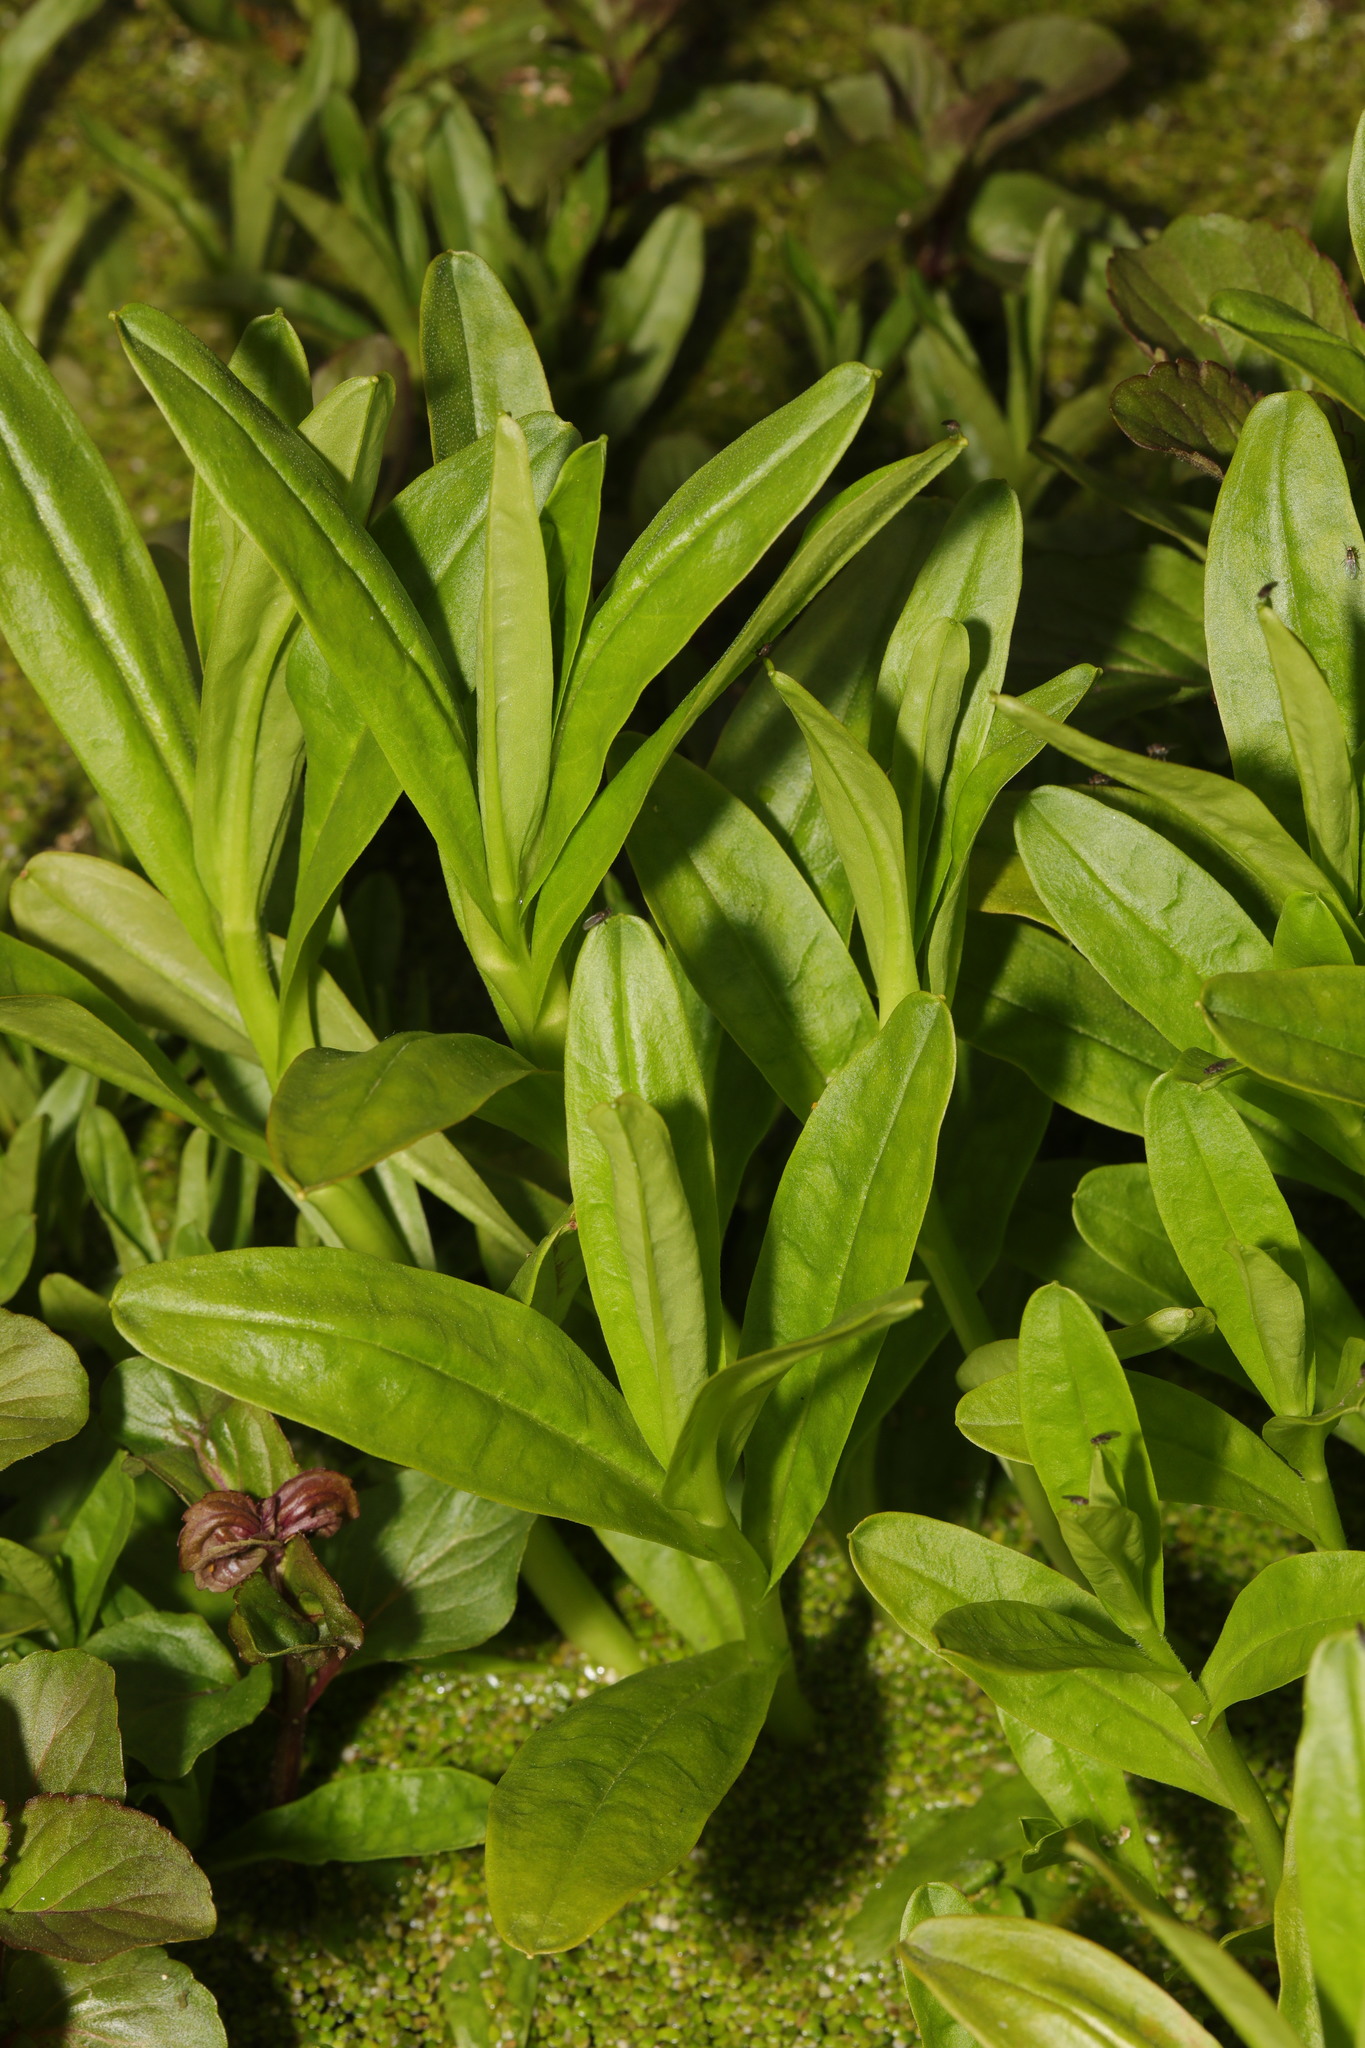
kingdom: Plantae
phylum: Tracheophyta
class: Magnoliopsida
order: Boraginales
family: Boraginaceae
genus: Myosotis
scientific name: Myosotis scorpioides
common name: Water forget-me-not
